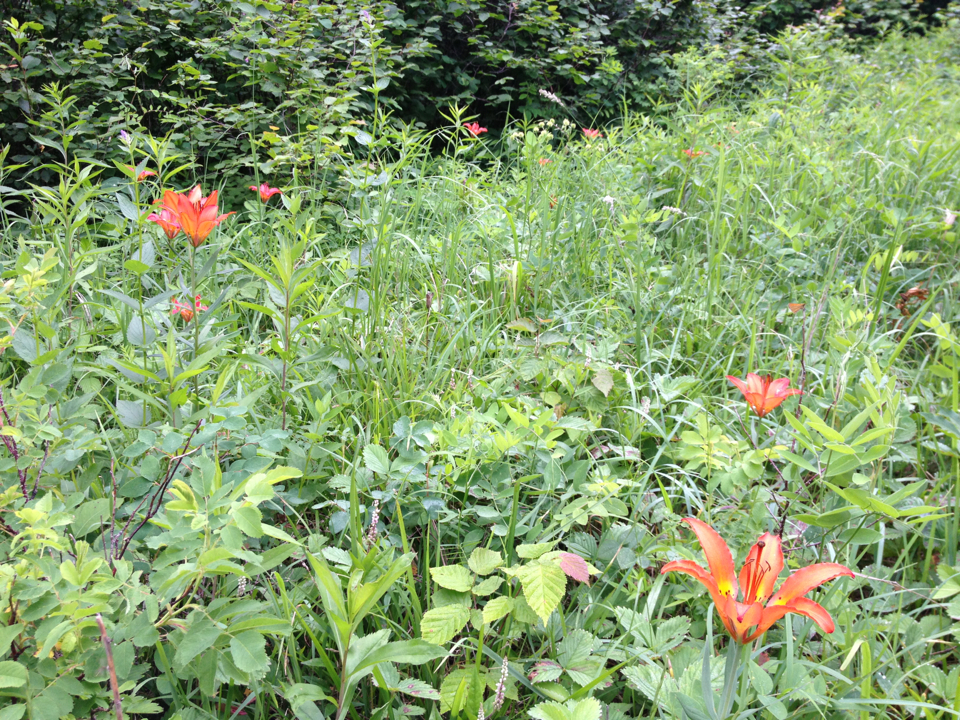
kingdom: Plantae
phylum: Tracheophyta
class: Liliopsida
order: Liliales
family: Liliaceae
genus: Lilium
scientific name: Lilium philadelphicum
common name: Red lily
